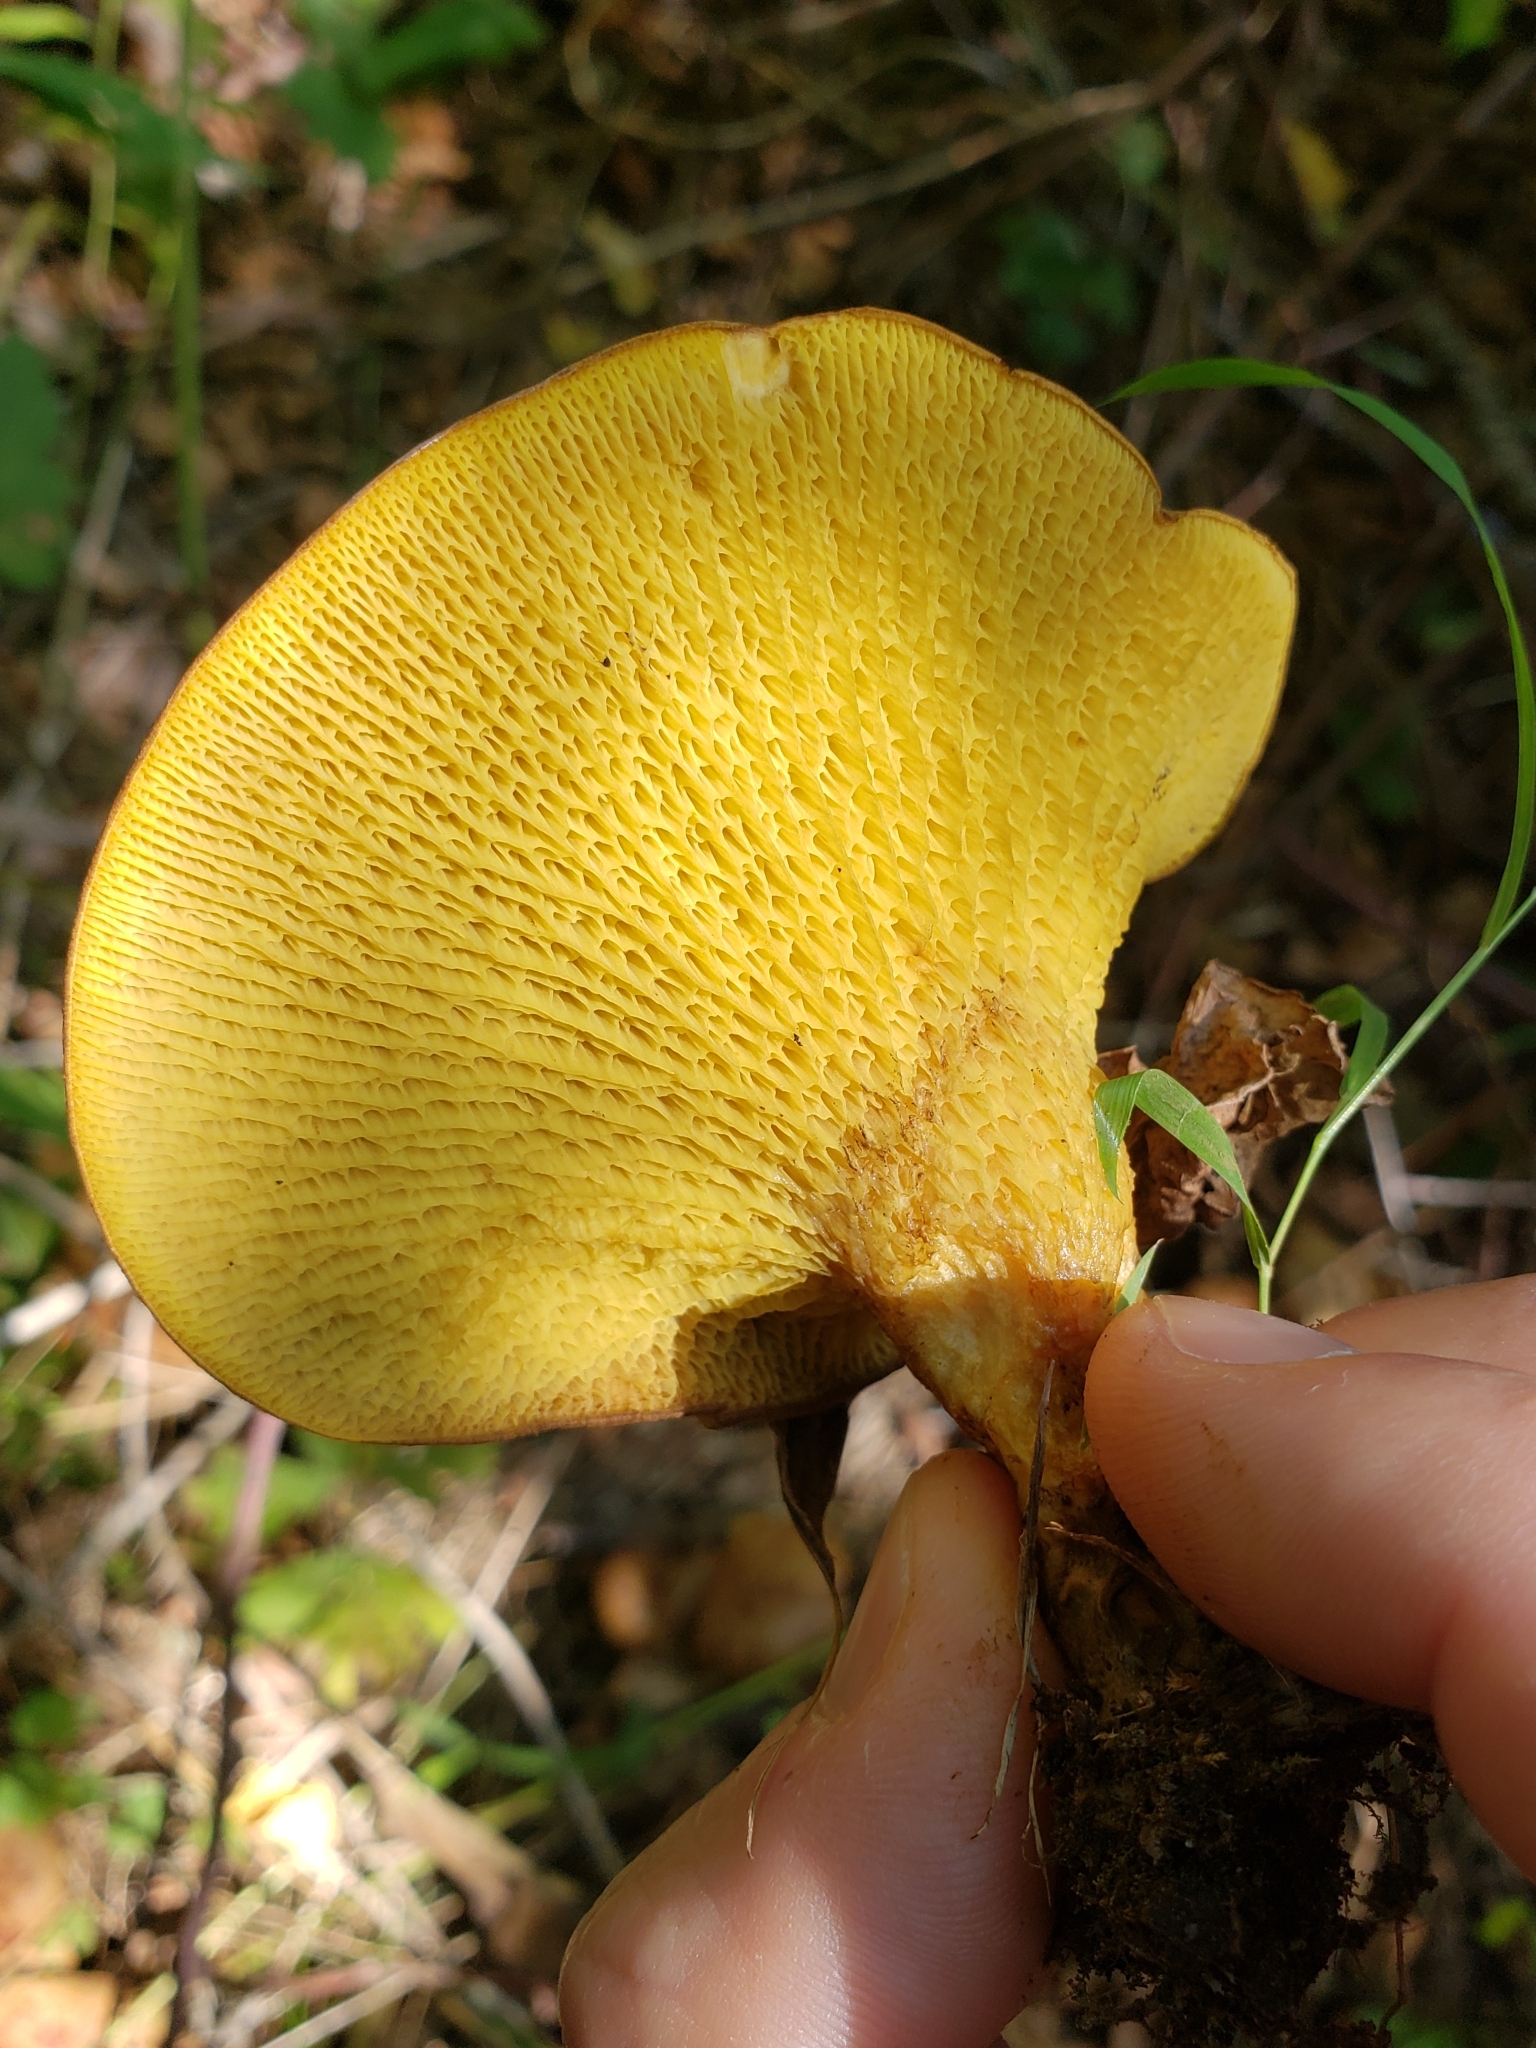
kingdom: Fungi
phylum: Basidiomycota
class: Agaricomycetes
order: Boletales
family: Boletinellaceae
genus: Boletinellus
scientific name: Boletinellus merulioides
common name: Ash tree bolete
